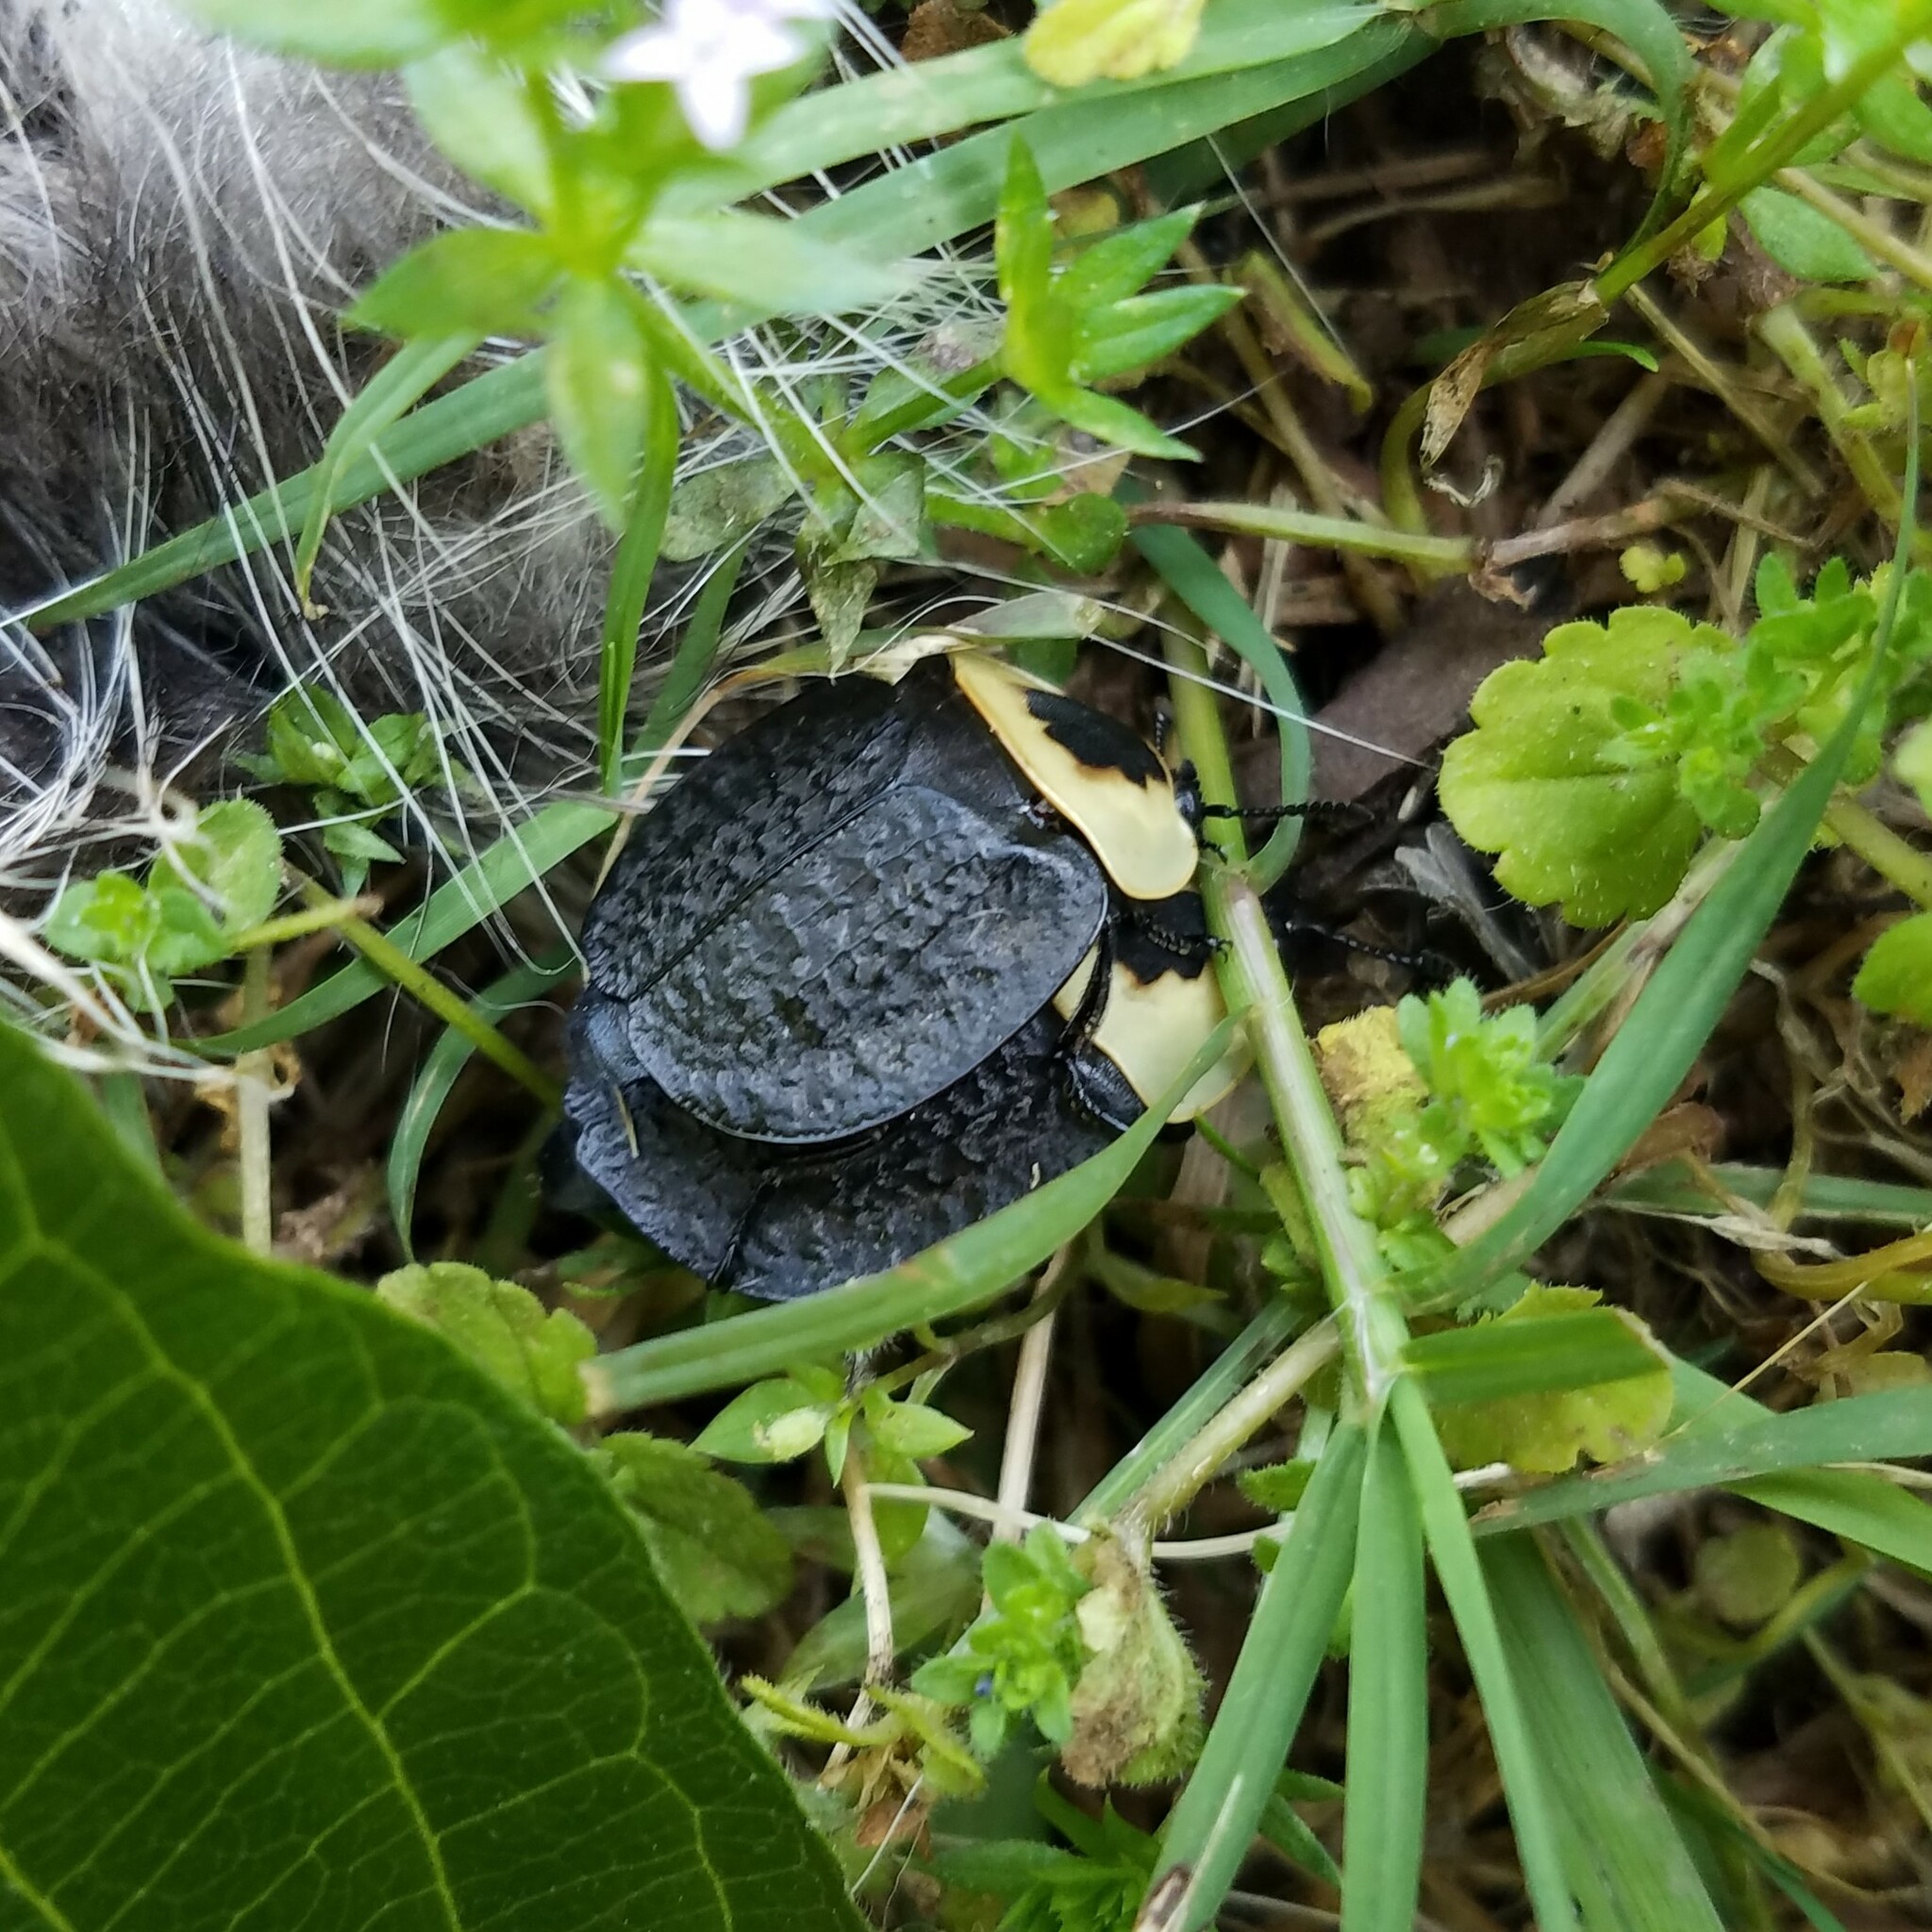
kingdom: Animalia
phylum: Arthropoda
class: Insecta
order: Coleoptera
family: Staphylinidae
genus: Necrophila
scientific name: Necrophila americana
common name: American carrion beetle
